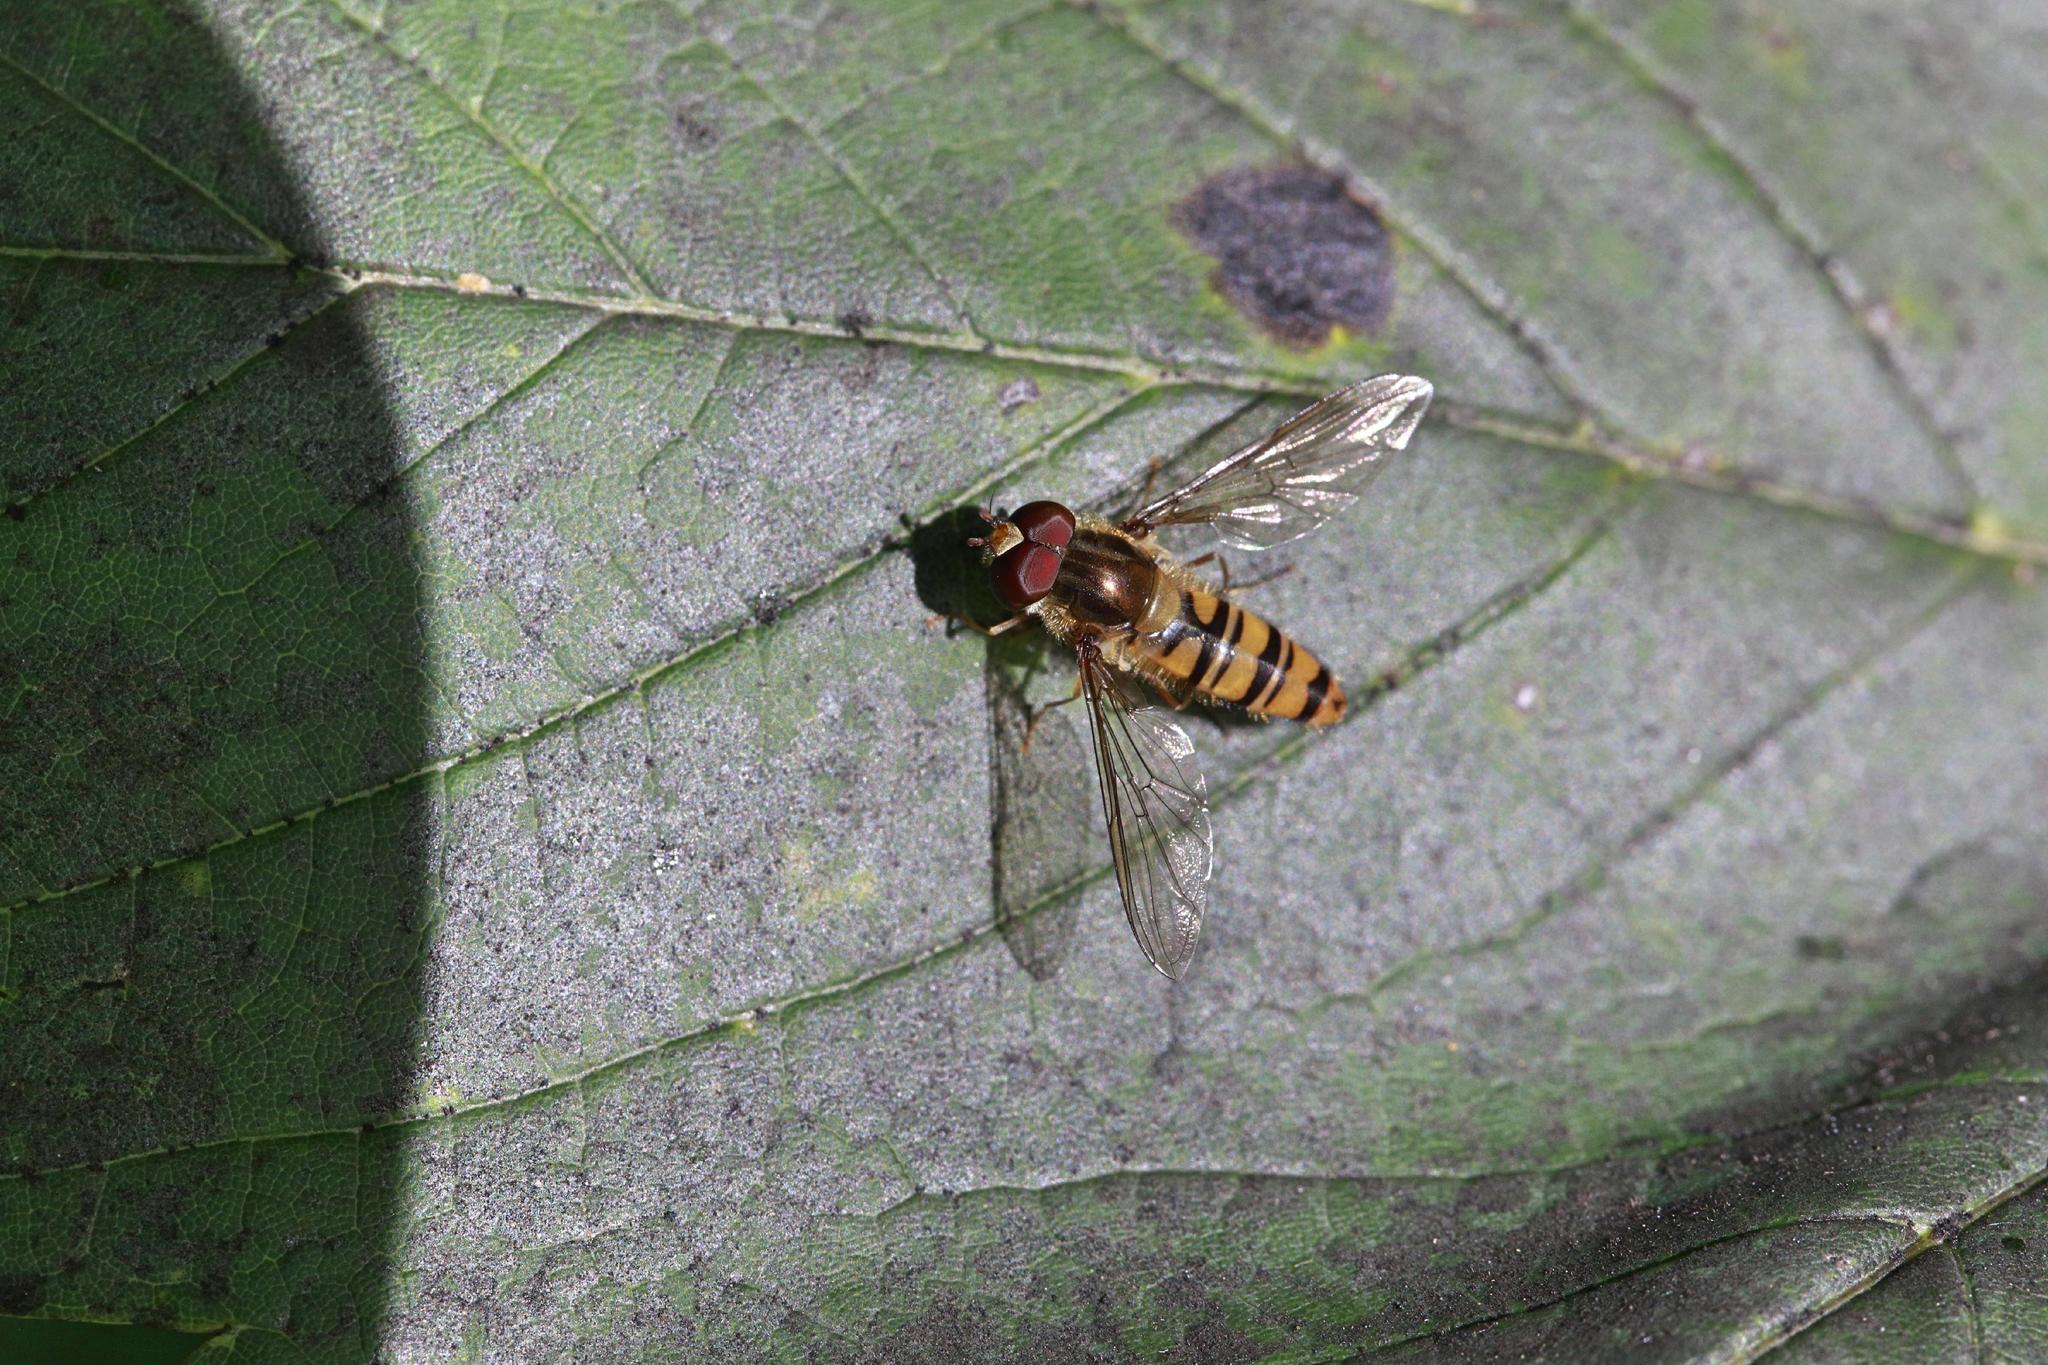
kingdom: Animalia
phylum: Arthropoda
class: Insecta
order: Diptera
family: Syrphidae
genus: Episyrphus
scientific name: Episyrphus balteatus
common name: Marmalade hoverfly
